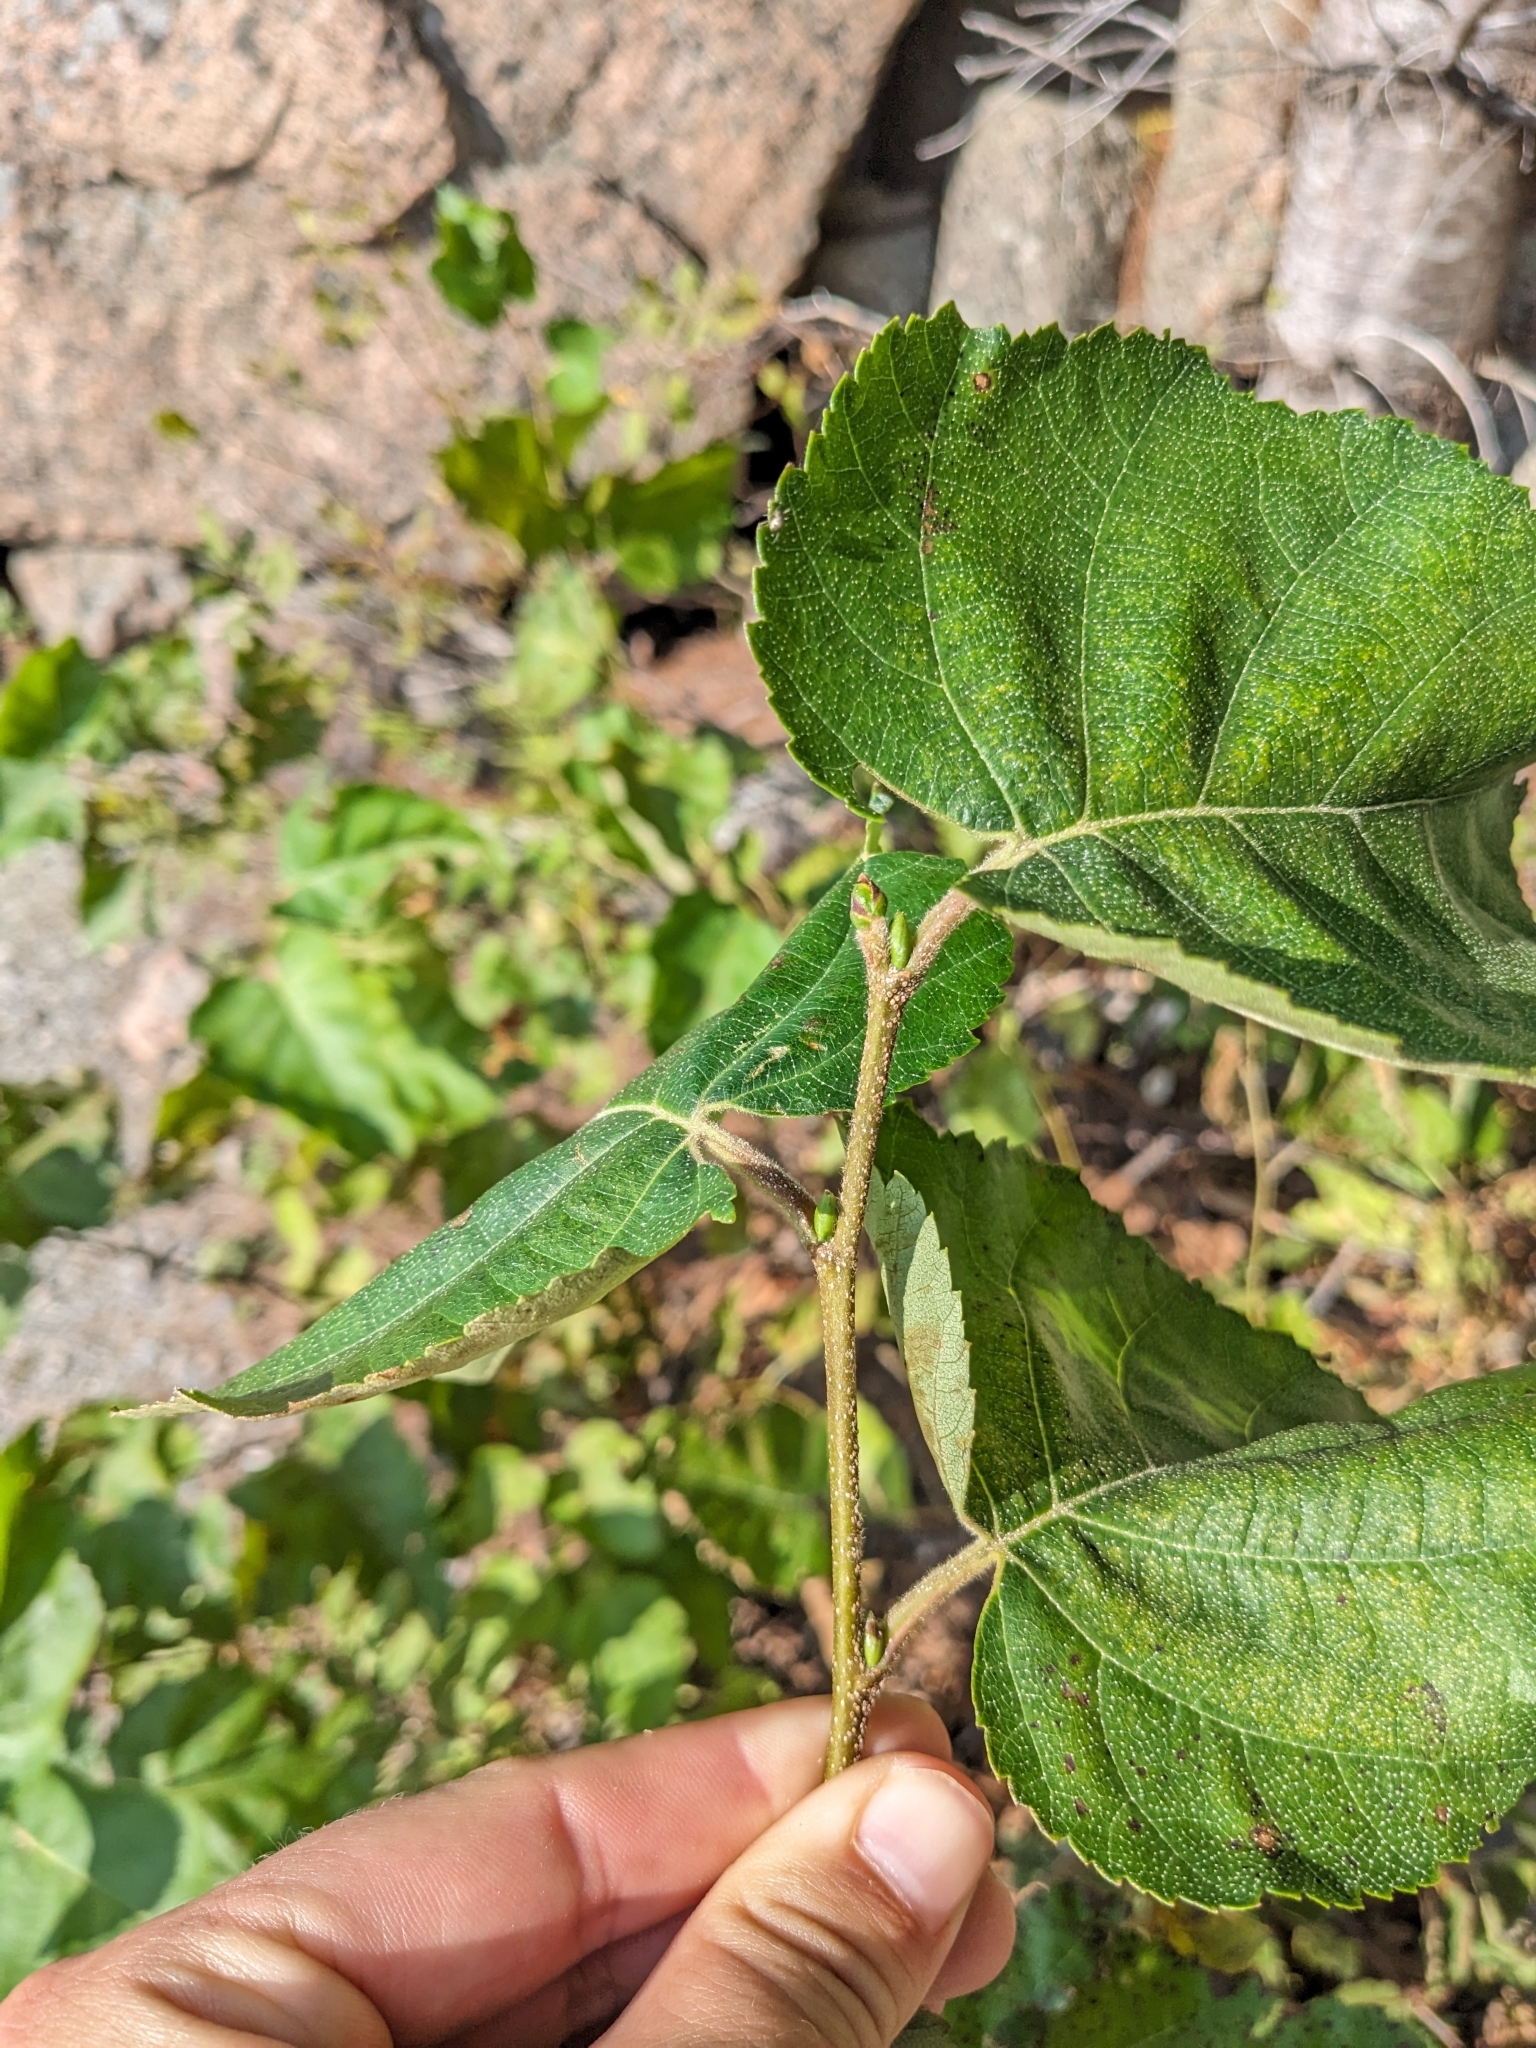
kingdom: Plantae
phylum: Tracheophyta
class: Magnoliopsida
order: Fagales
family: Betulaceae
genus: Betula
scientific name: Betula cordifolia
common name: Mountain white birch
